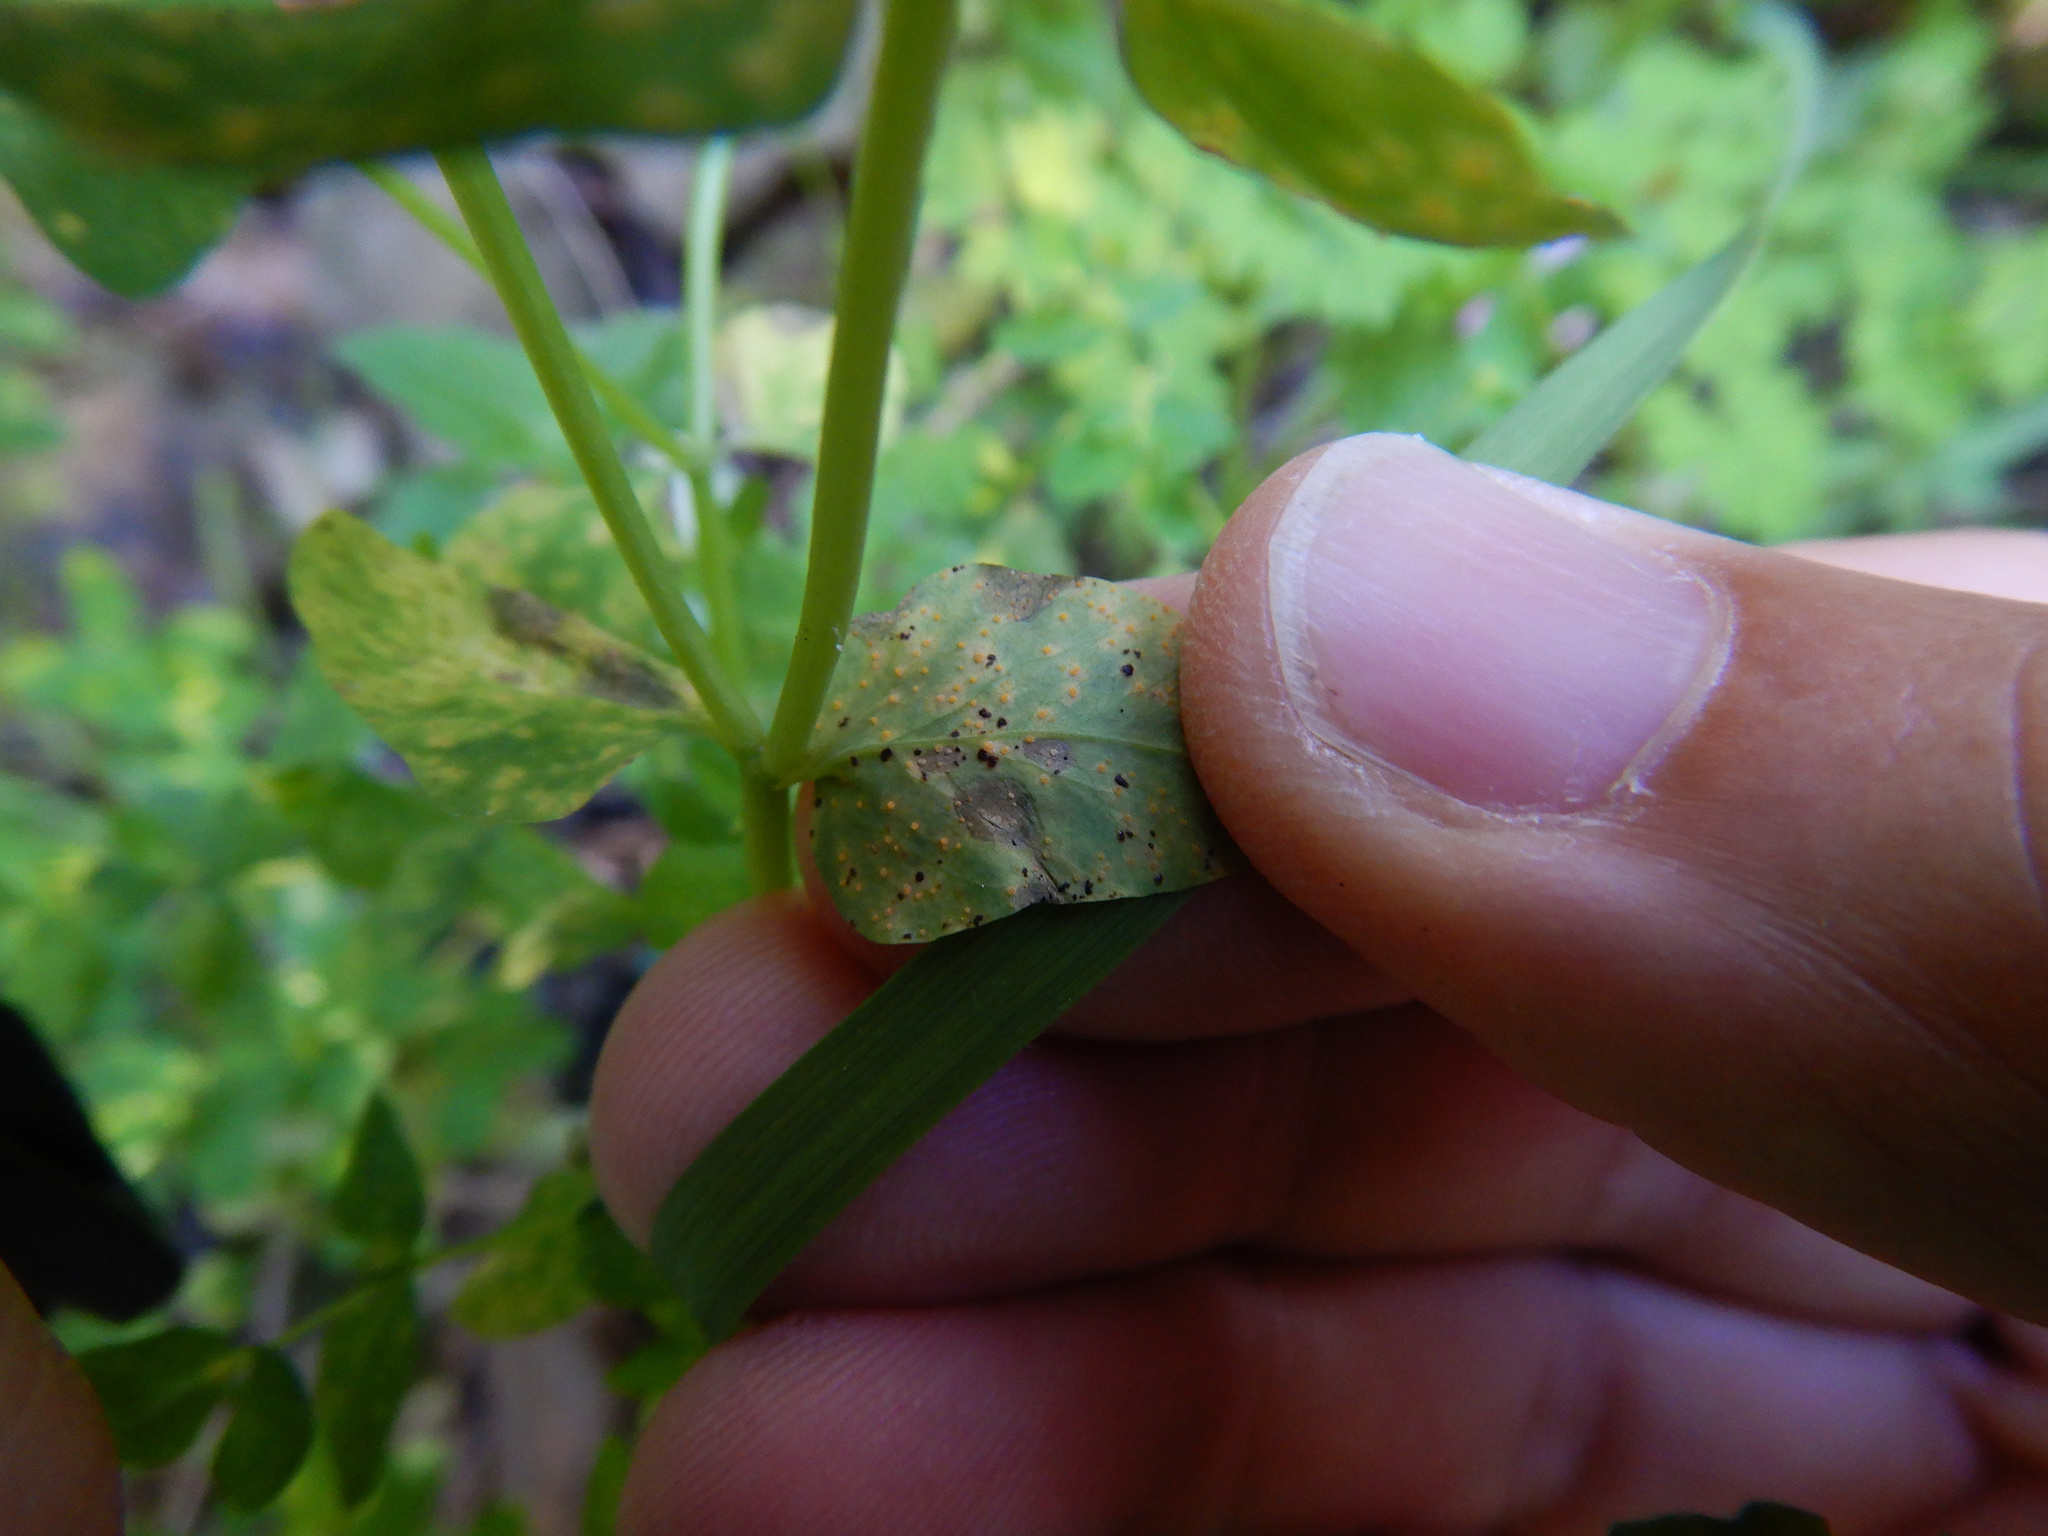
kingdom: Fungi
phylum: Basidiomycota
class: Pucciniomycetes
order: Pucciniales
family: Melampsoraceae
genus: Melampsora
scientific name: Melampsora euphorbiae
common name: Spurge rust
